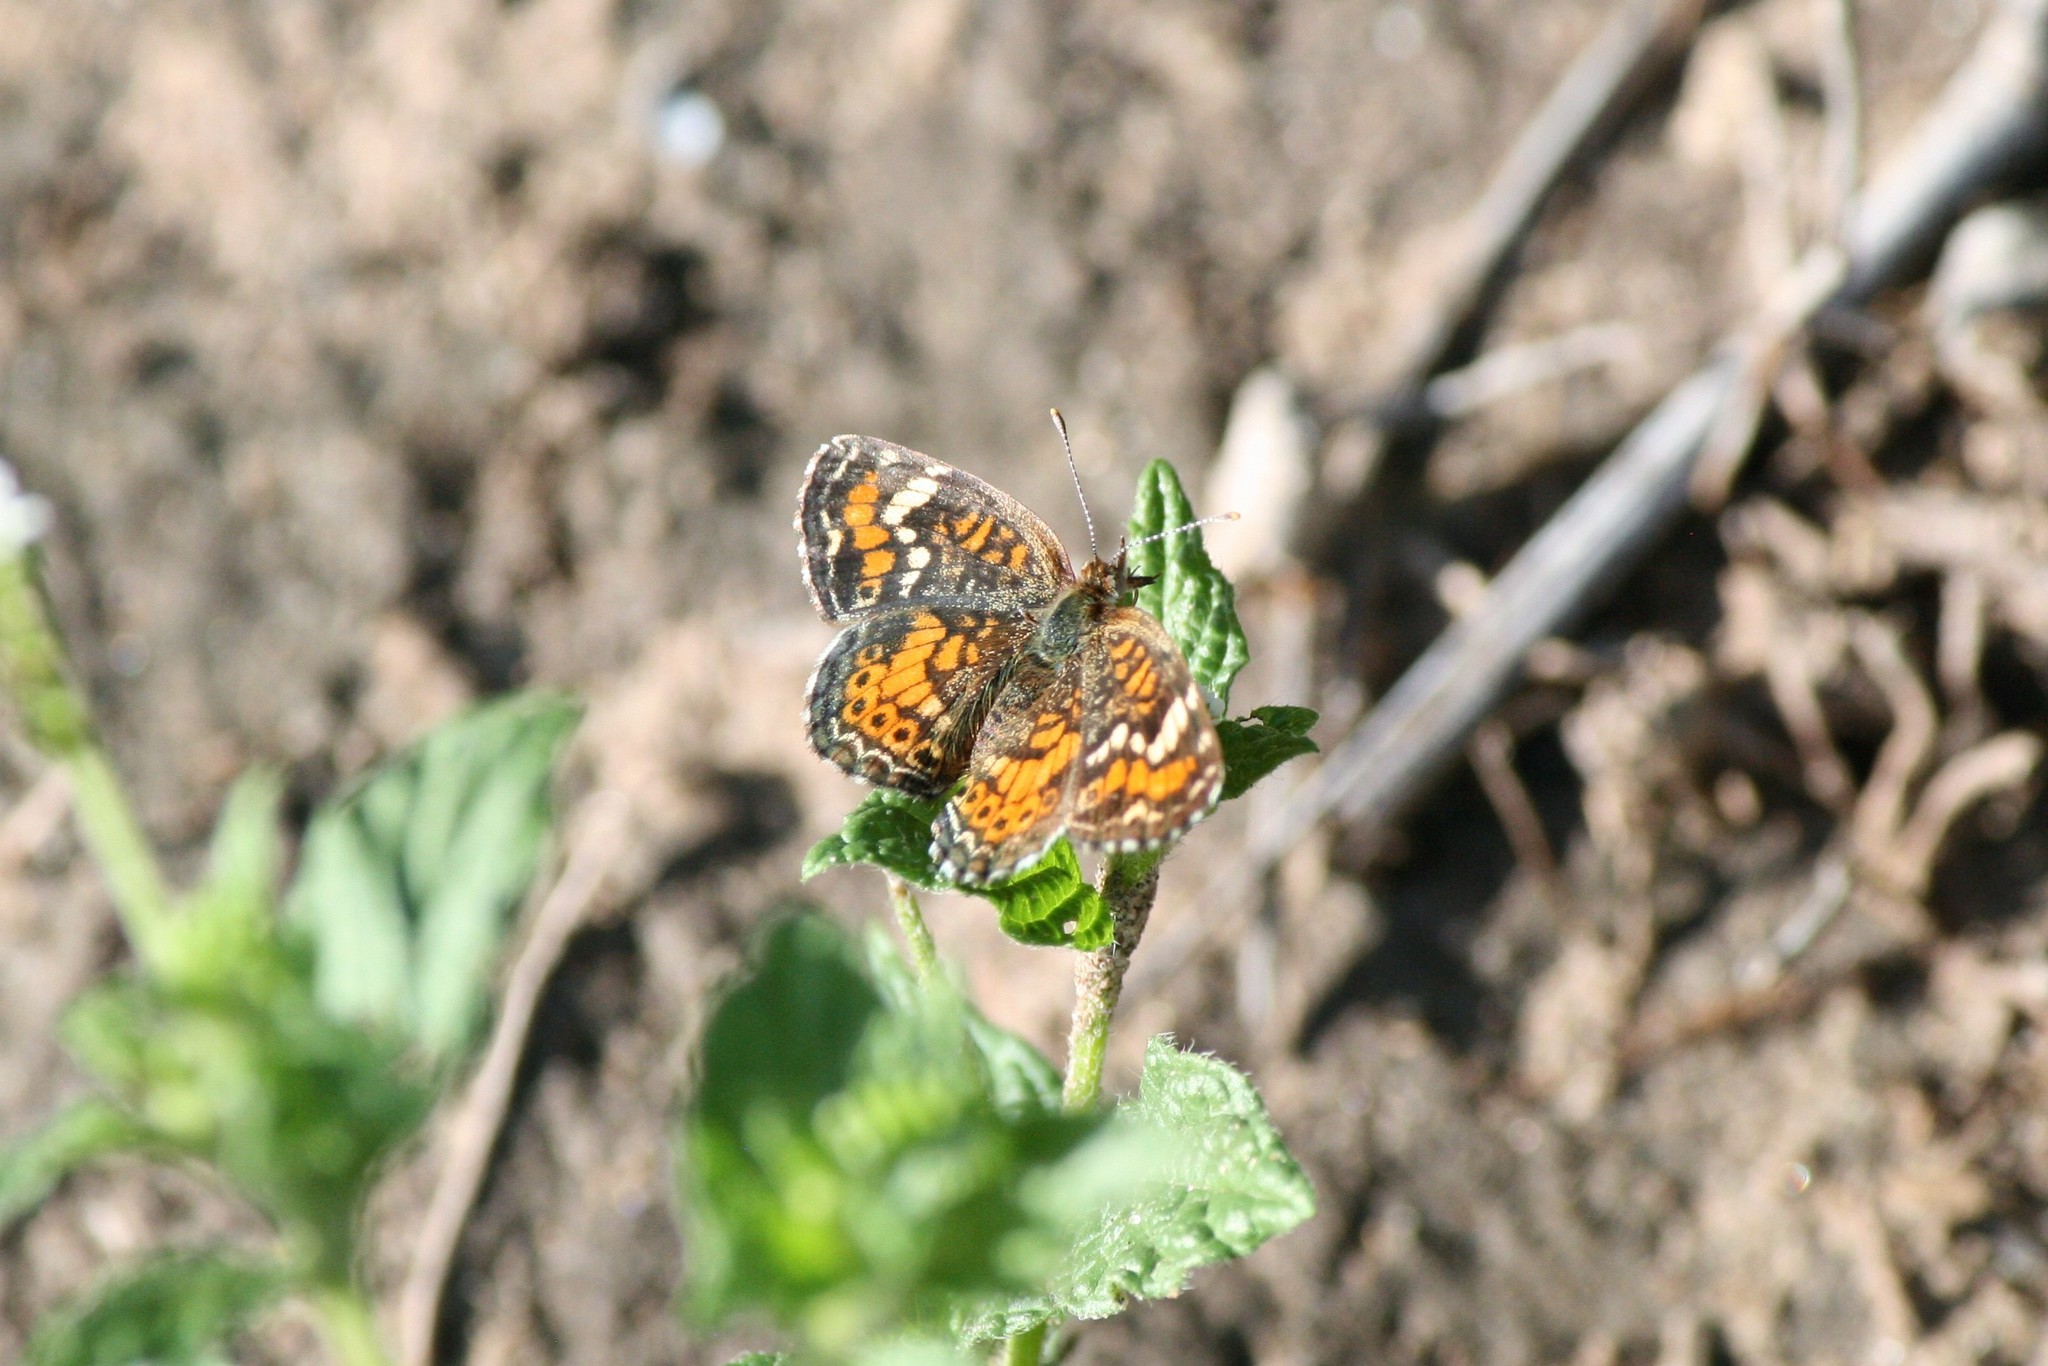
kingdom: Animalia
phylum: Arthropoda
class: Insecta
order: Lepidoptera
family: Nymphalidae
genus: Phyciodes
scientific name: Phyciodes phaon
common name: Phaon crescent
